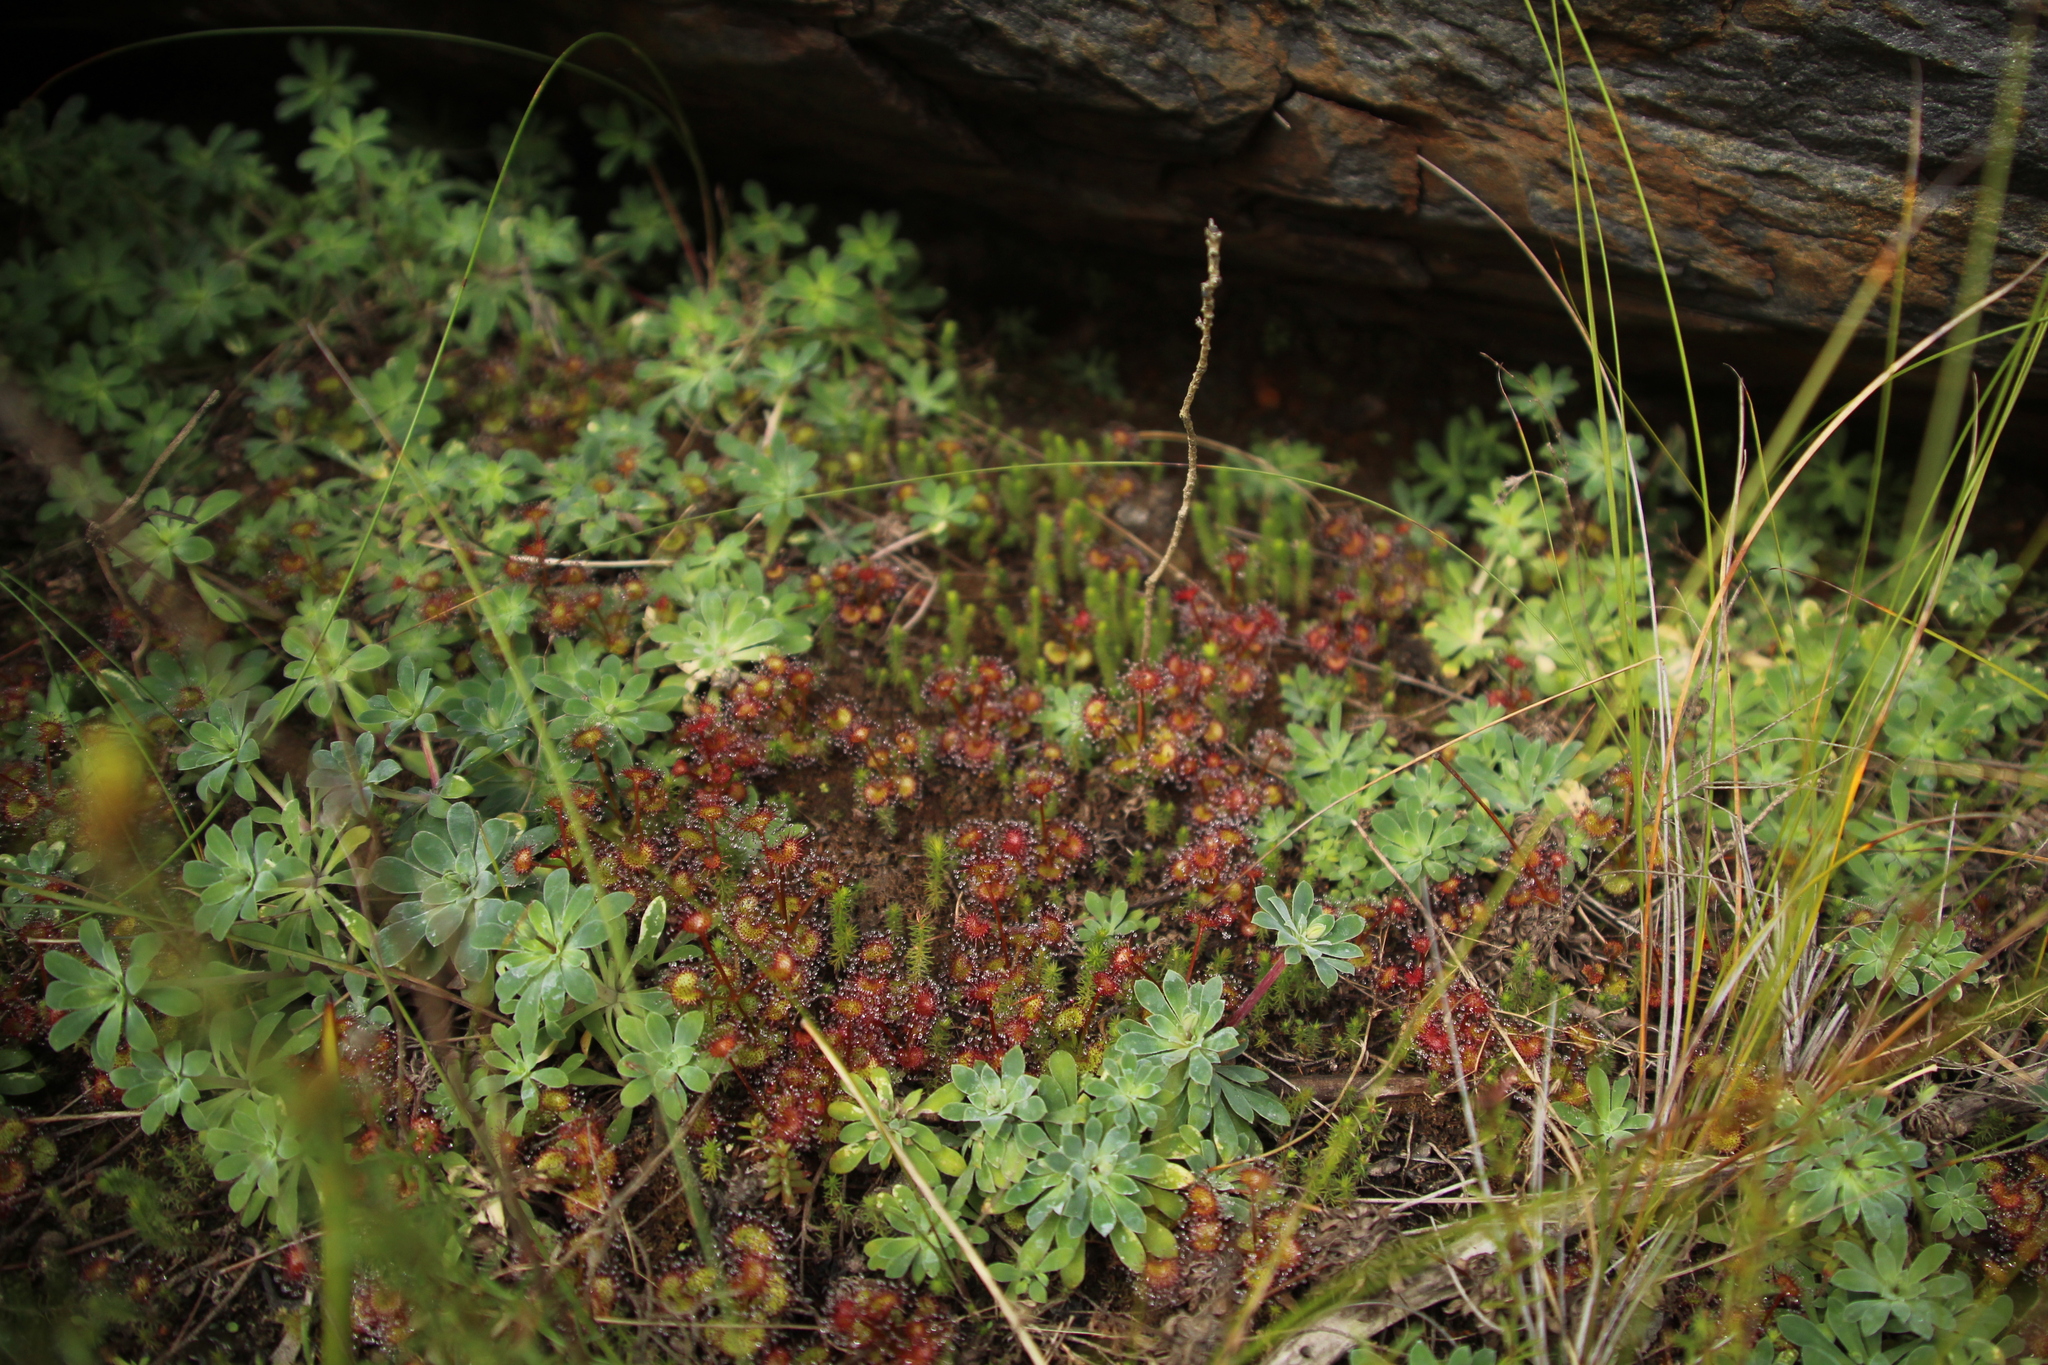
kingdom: Plantae
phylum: Tracheophyta
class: Magnoliopsida
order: Caryophyllales
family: Droseraceae
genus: Drosera
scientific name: Drosera monticola
